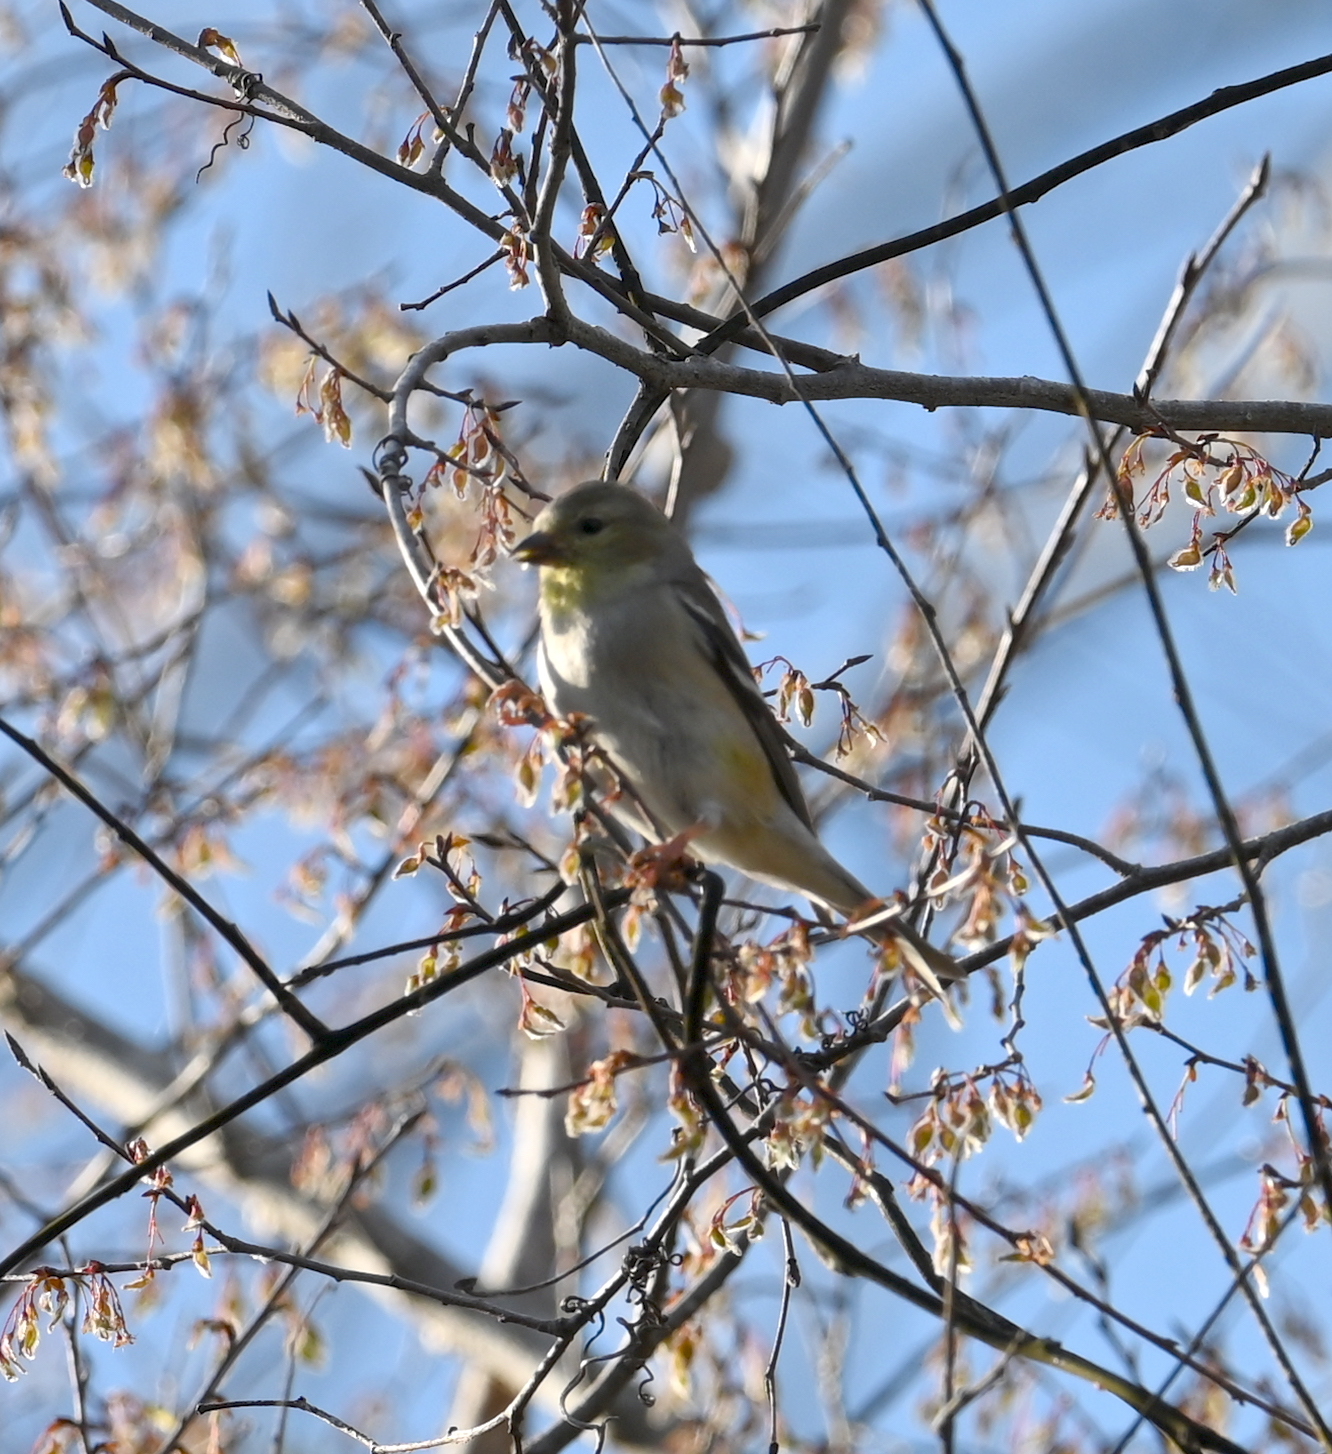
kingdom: Animalia
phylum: Chordata
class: Aves
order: Passeriformes
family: Fringillidae
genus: Spinus
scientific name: Spinus tristis
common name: American goldfinch
